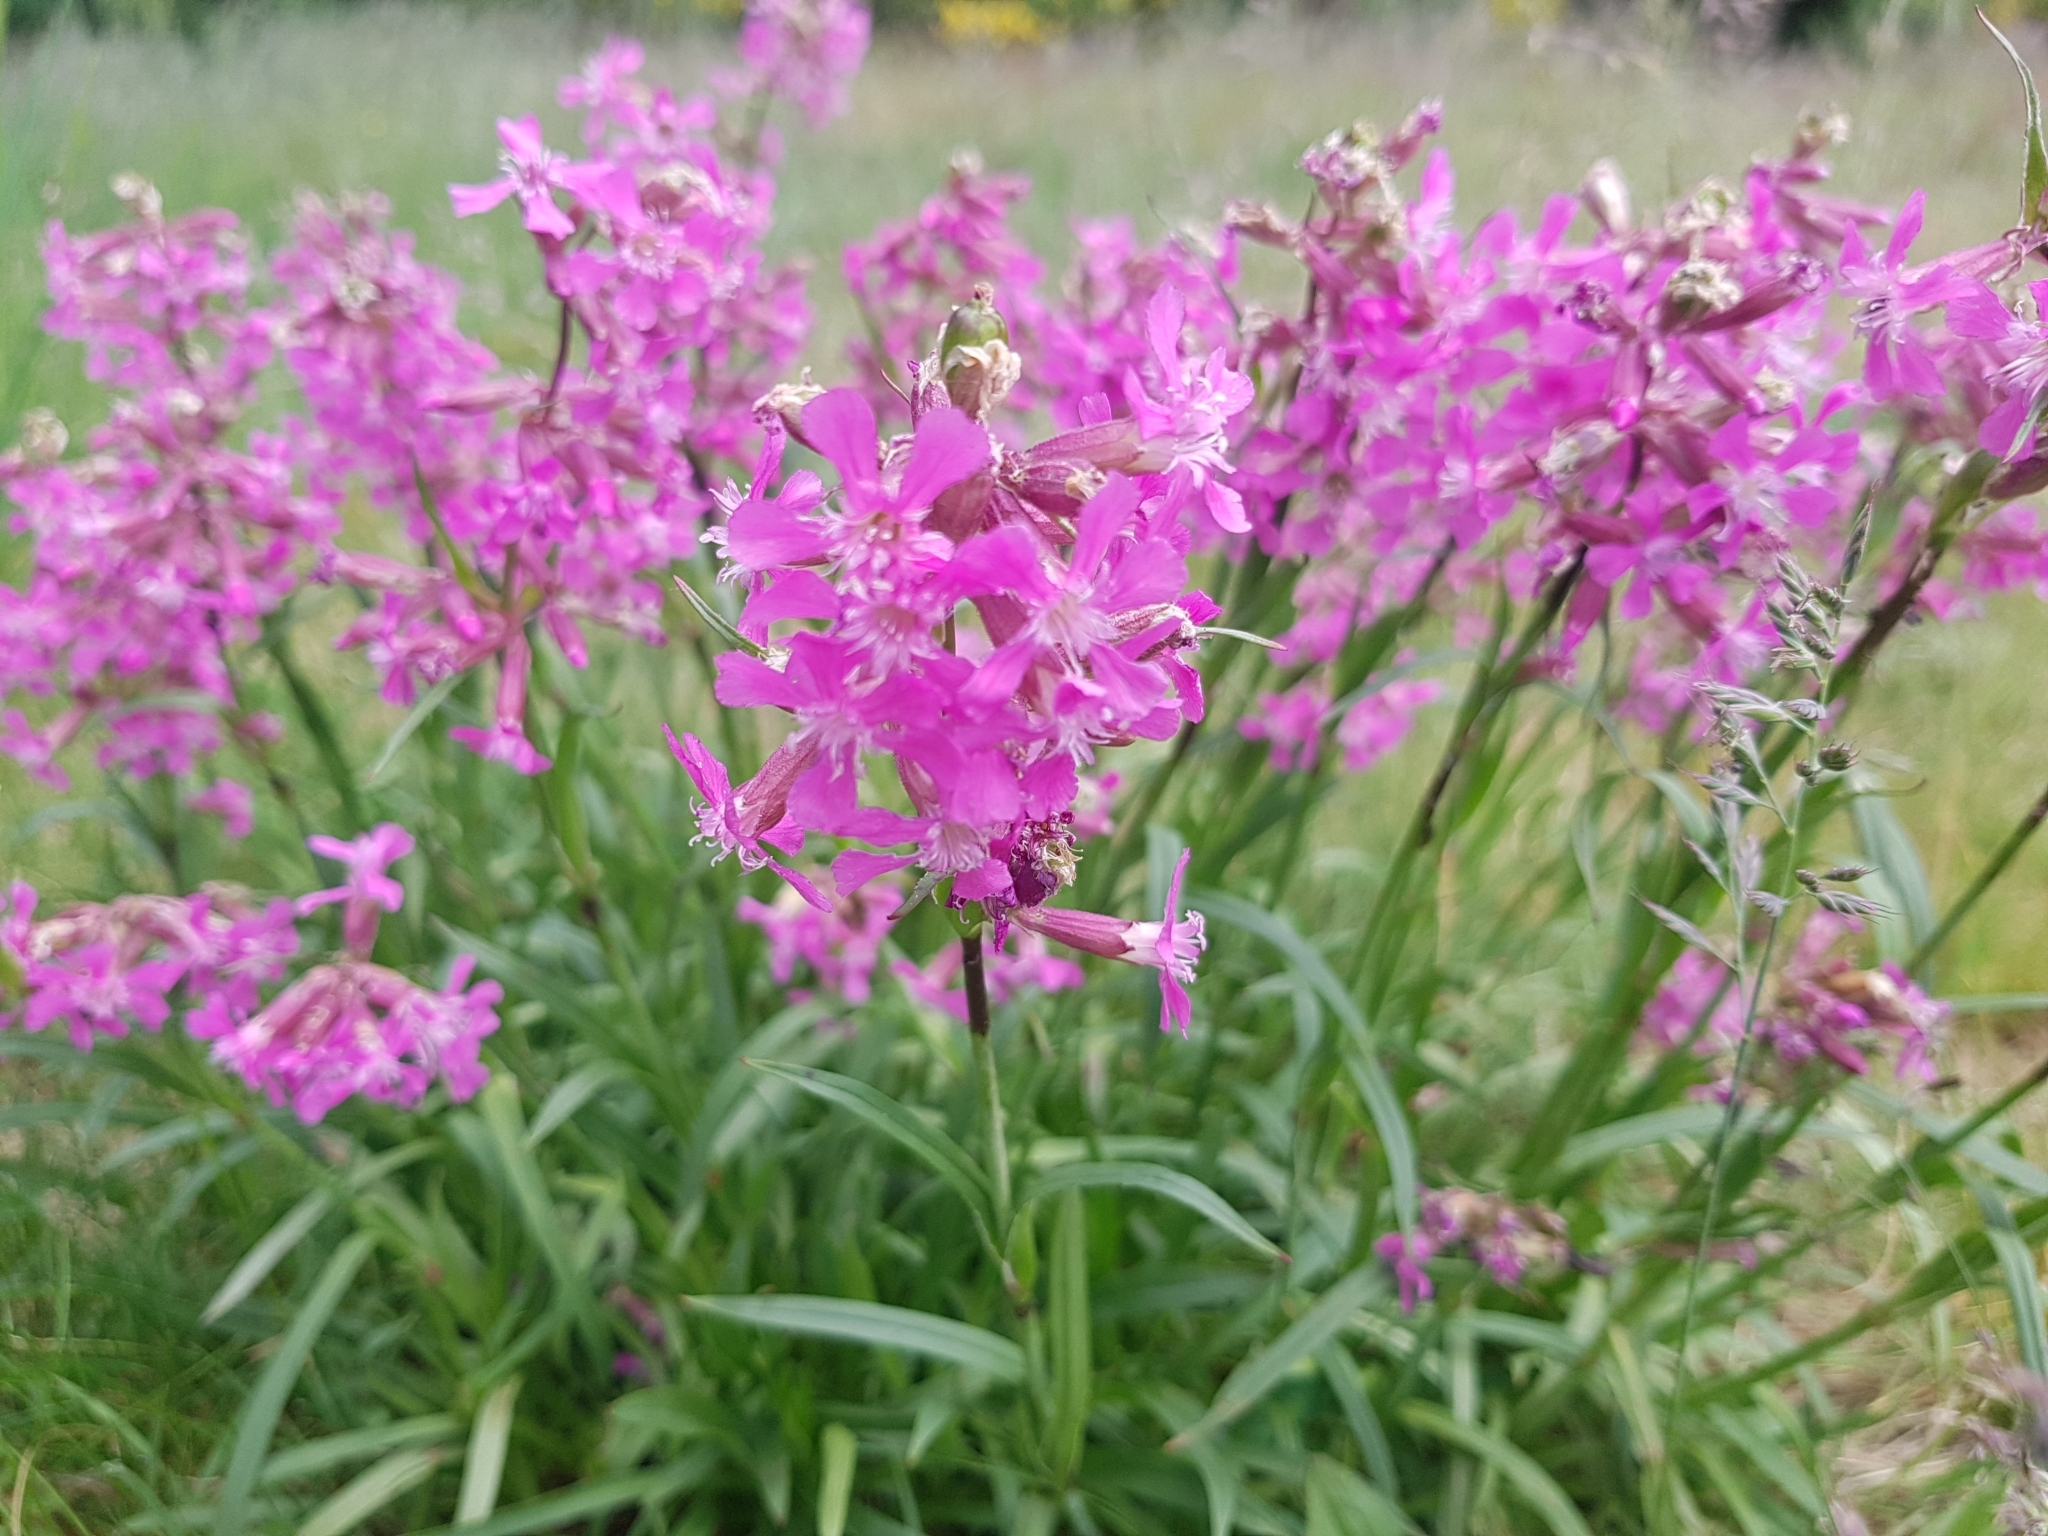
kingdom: Plantae
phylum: Tracheophyta
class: Magnoliopsida
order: Caryophyllales
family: Caryophyllaceae
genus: Viscaria
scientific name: Viscaria vulgaris
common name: Clammy campion
